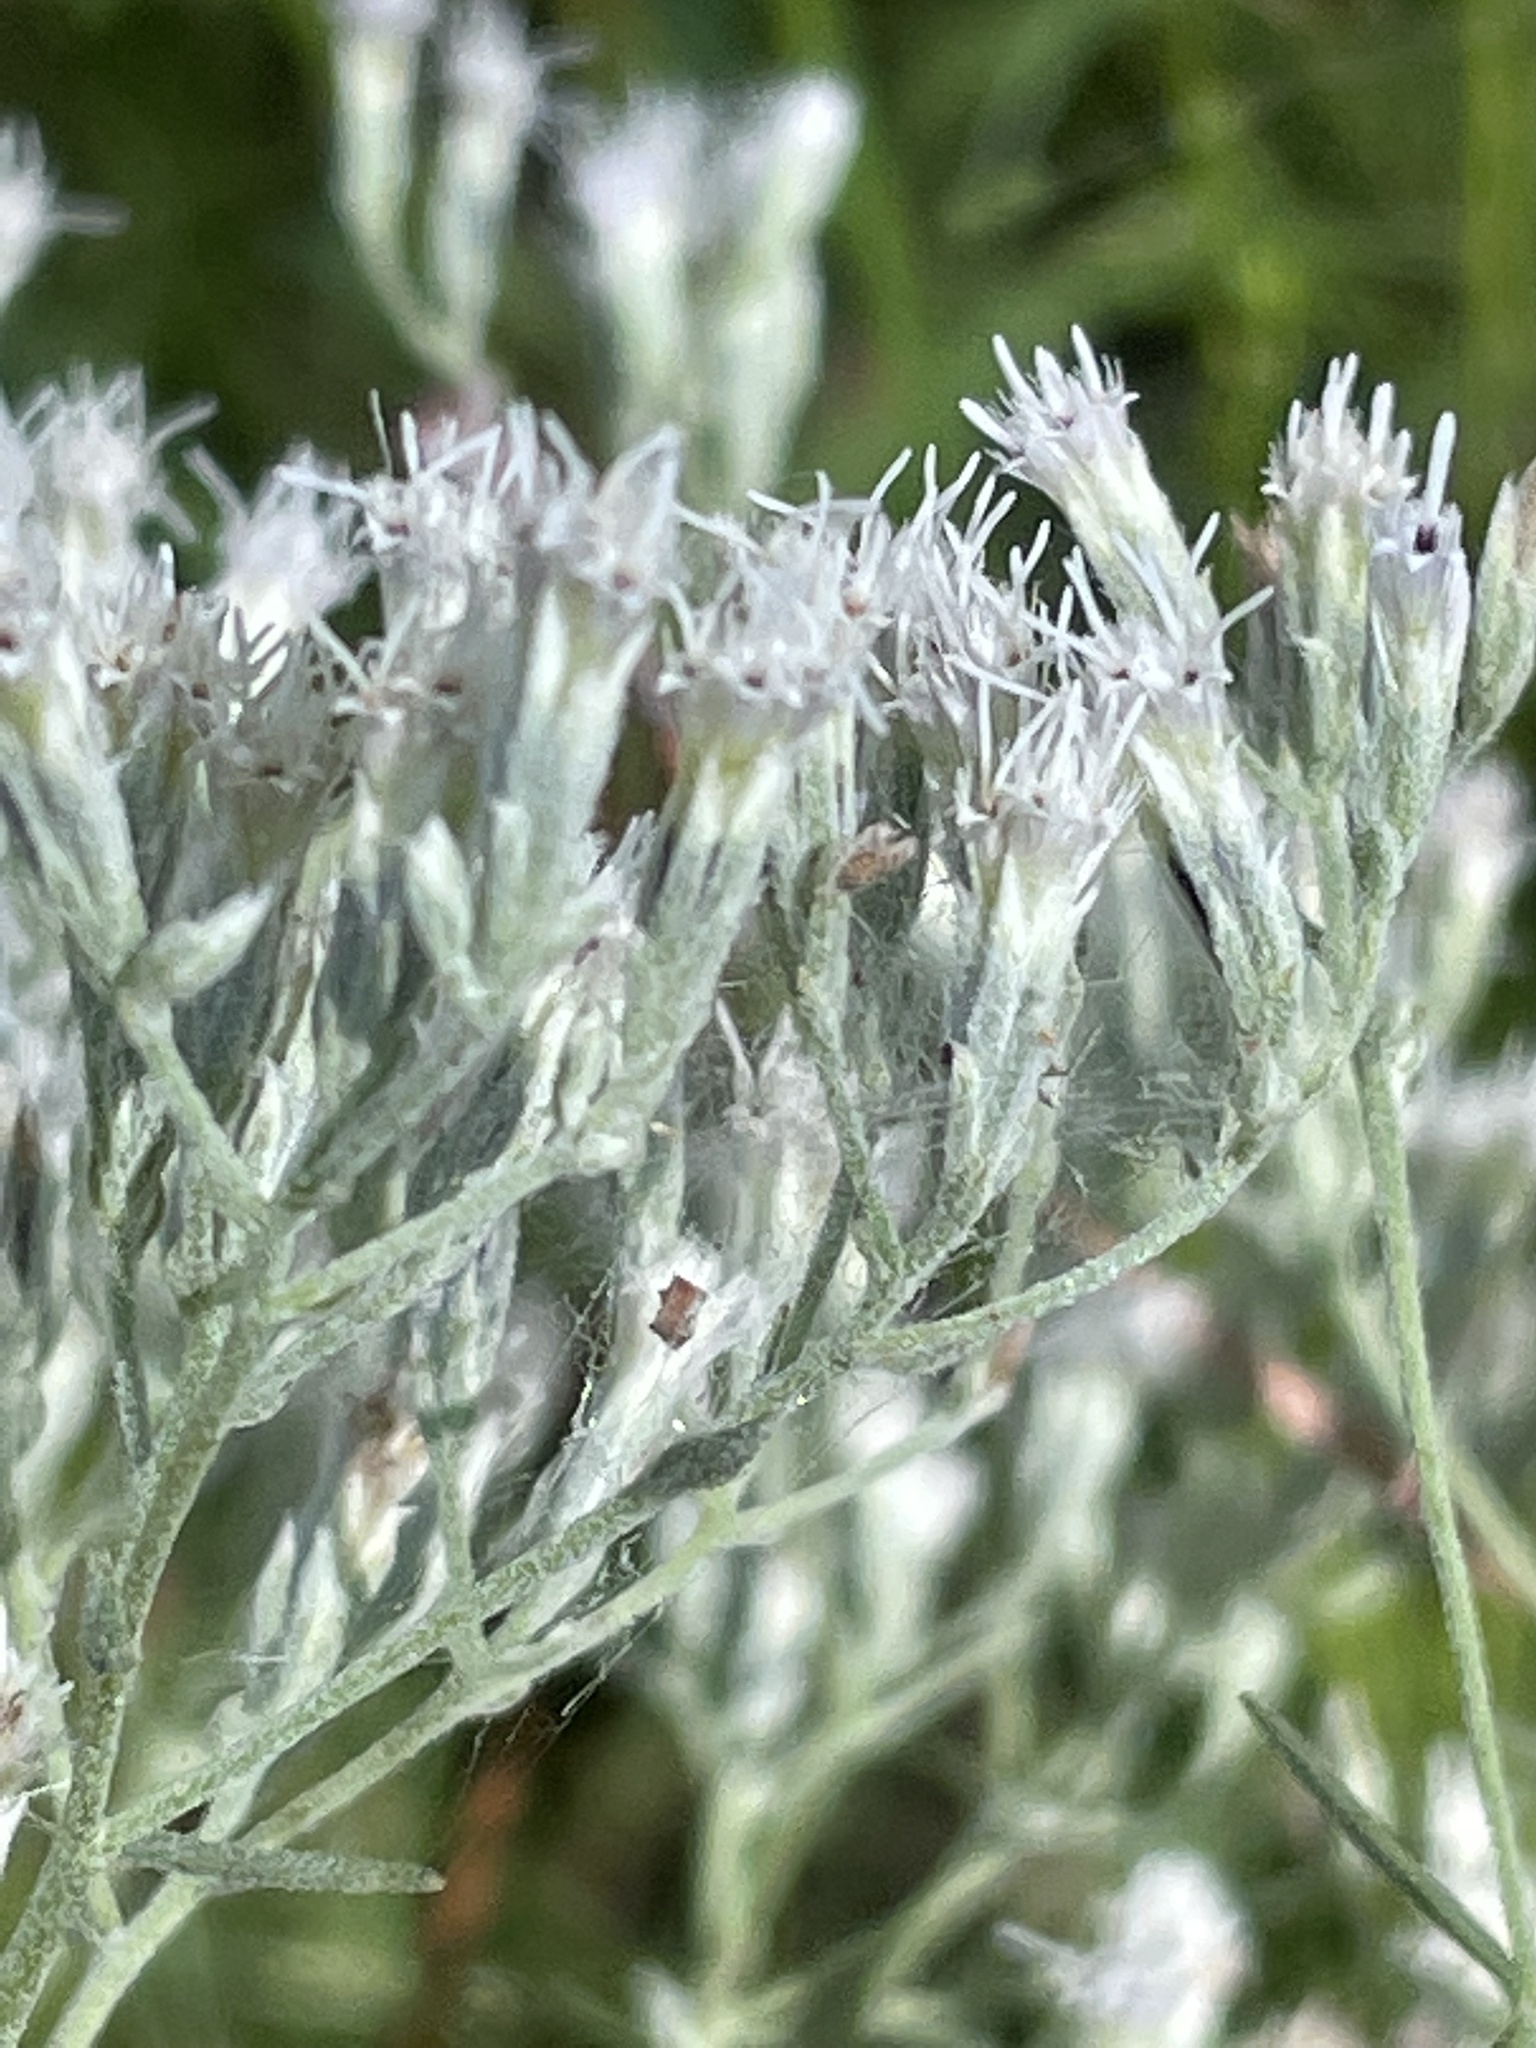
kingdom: Plantae
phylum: Tracheophyta
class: Magnoliopsida
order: Asterales
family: Asteraceae
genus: Eupatorium
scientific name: Eupatorium torreyanum
